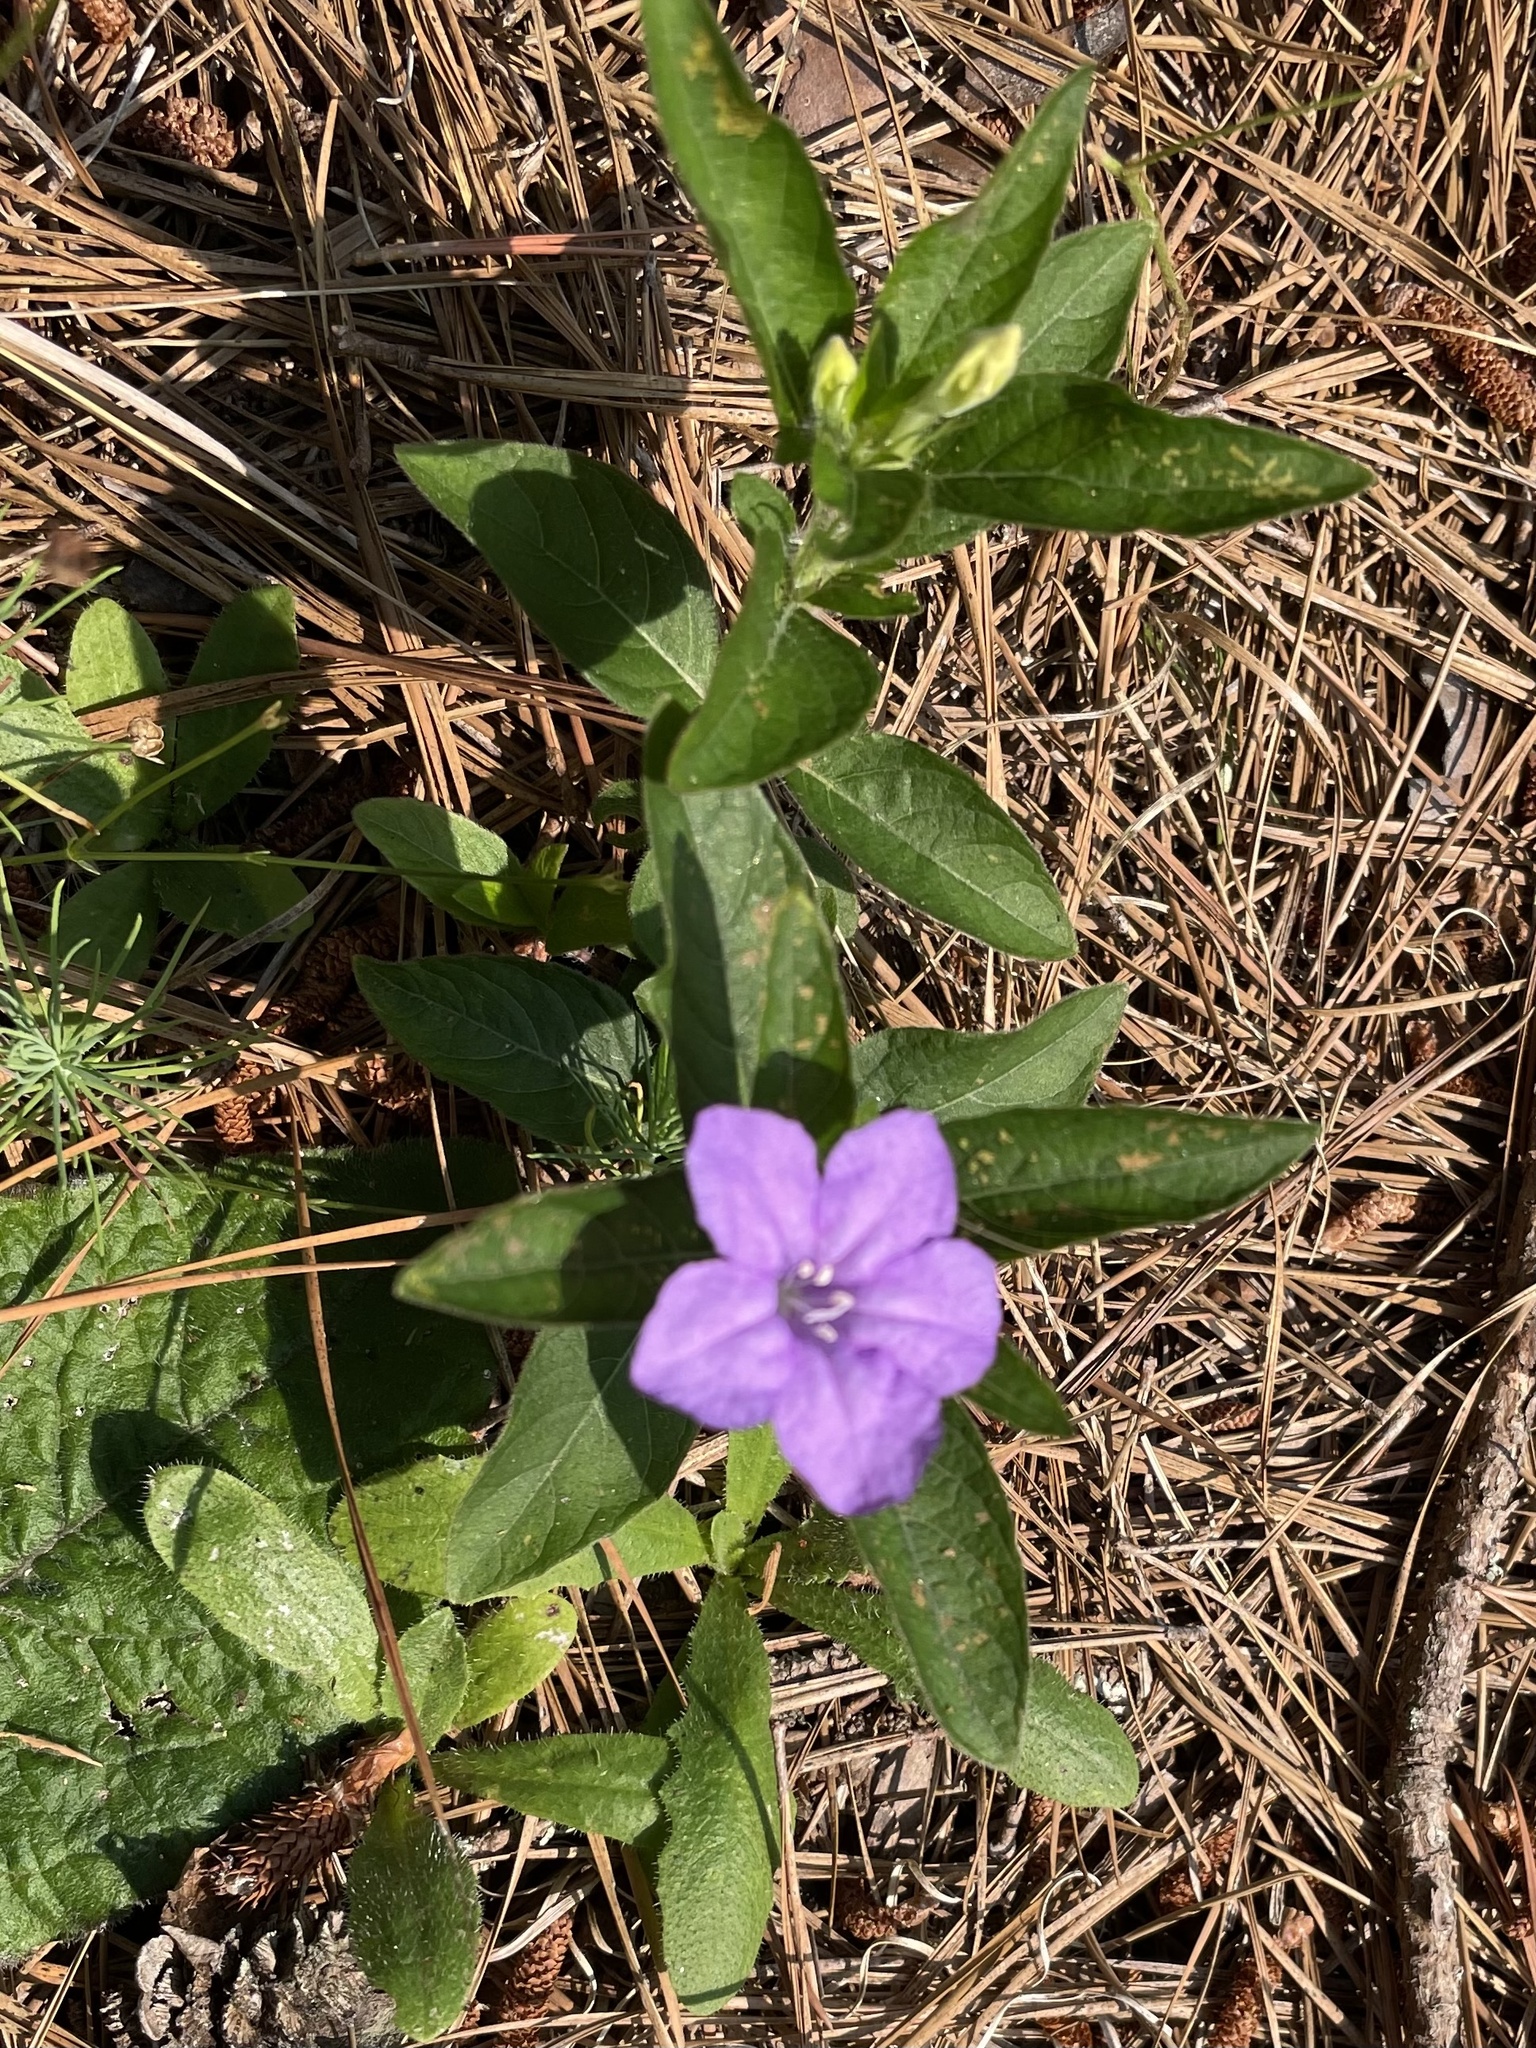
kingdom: Plantae
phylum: Tracheophyta
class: Magnoliopsida
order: Lamiales
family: Acanthaceae
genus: Ruellia
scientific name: Ruellia caroliniensis
